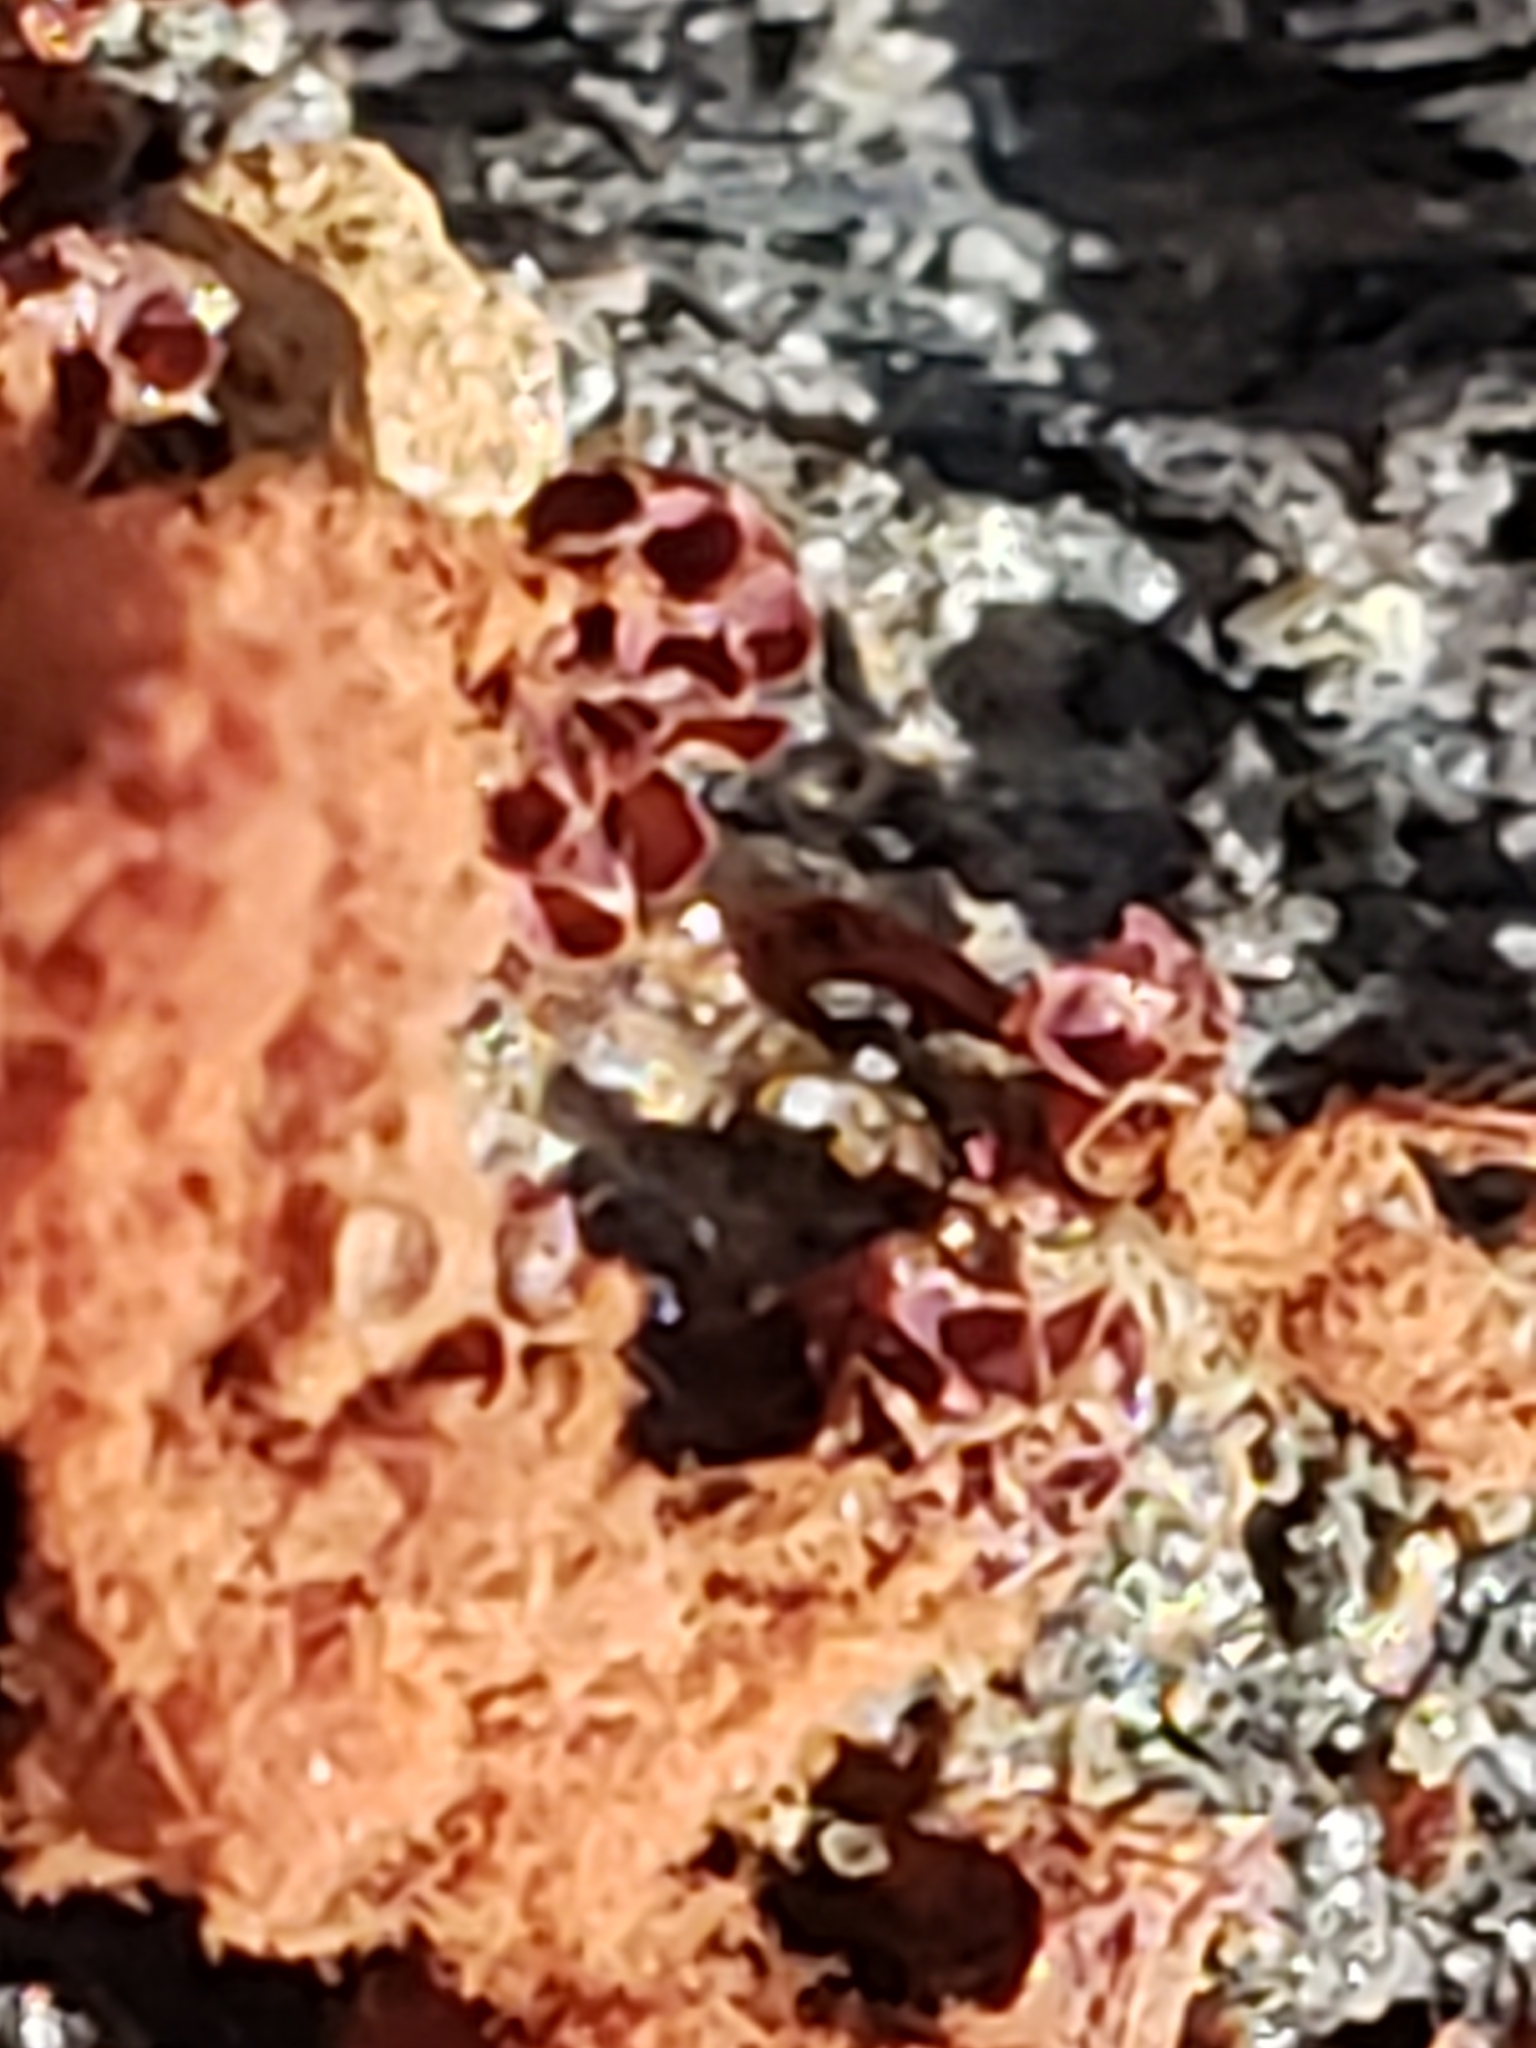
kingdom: Protozoa
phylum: Mycetozoa
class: Myxomycetes
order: Trichiales
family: Trichiaceae
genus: Metatrichia
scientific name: Metatrichia vesparia
